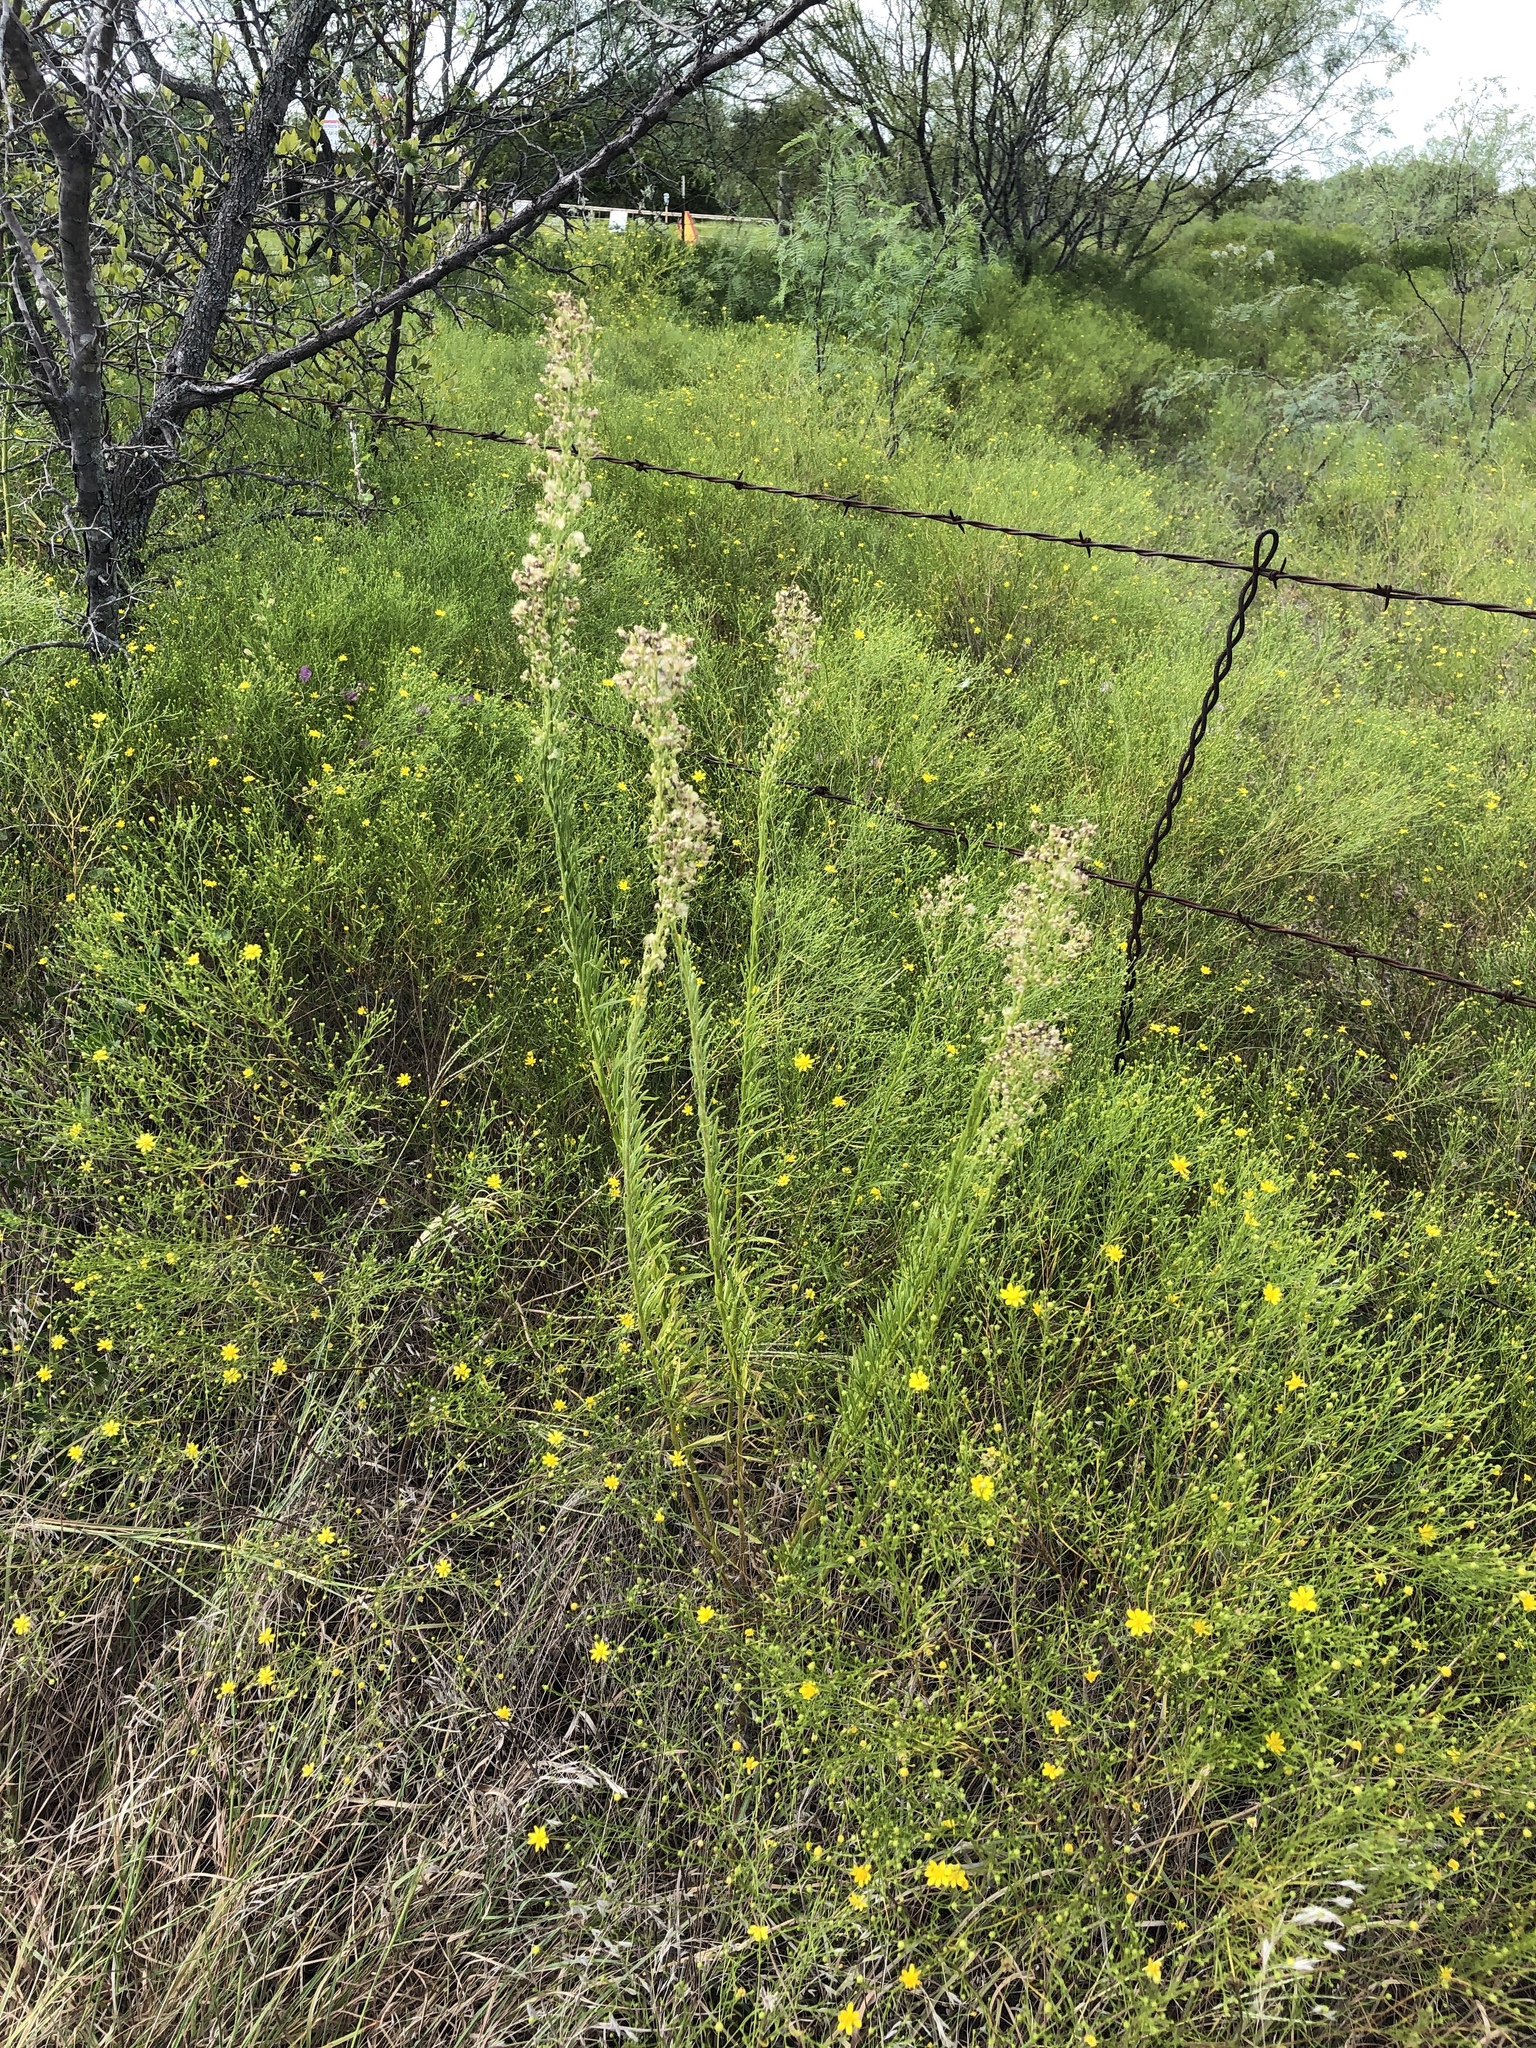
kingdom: Plantae
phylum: Tracheophyta
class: Magnoliopsida
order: Asterales
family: Asteraceae
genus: Erigeron
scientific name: Erigeron canadensis
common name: Canadian fleabane
